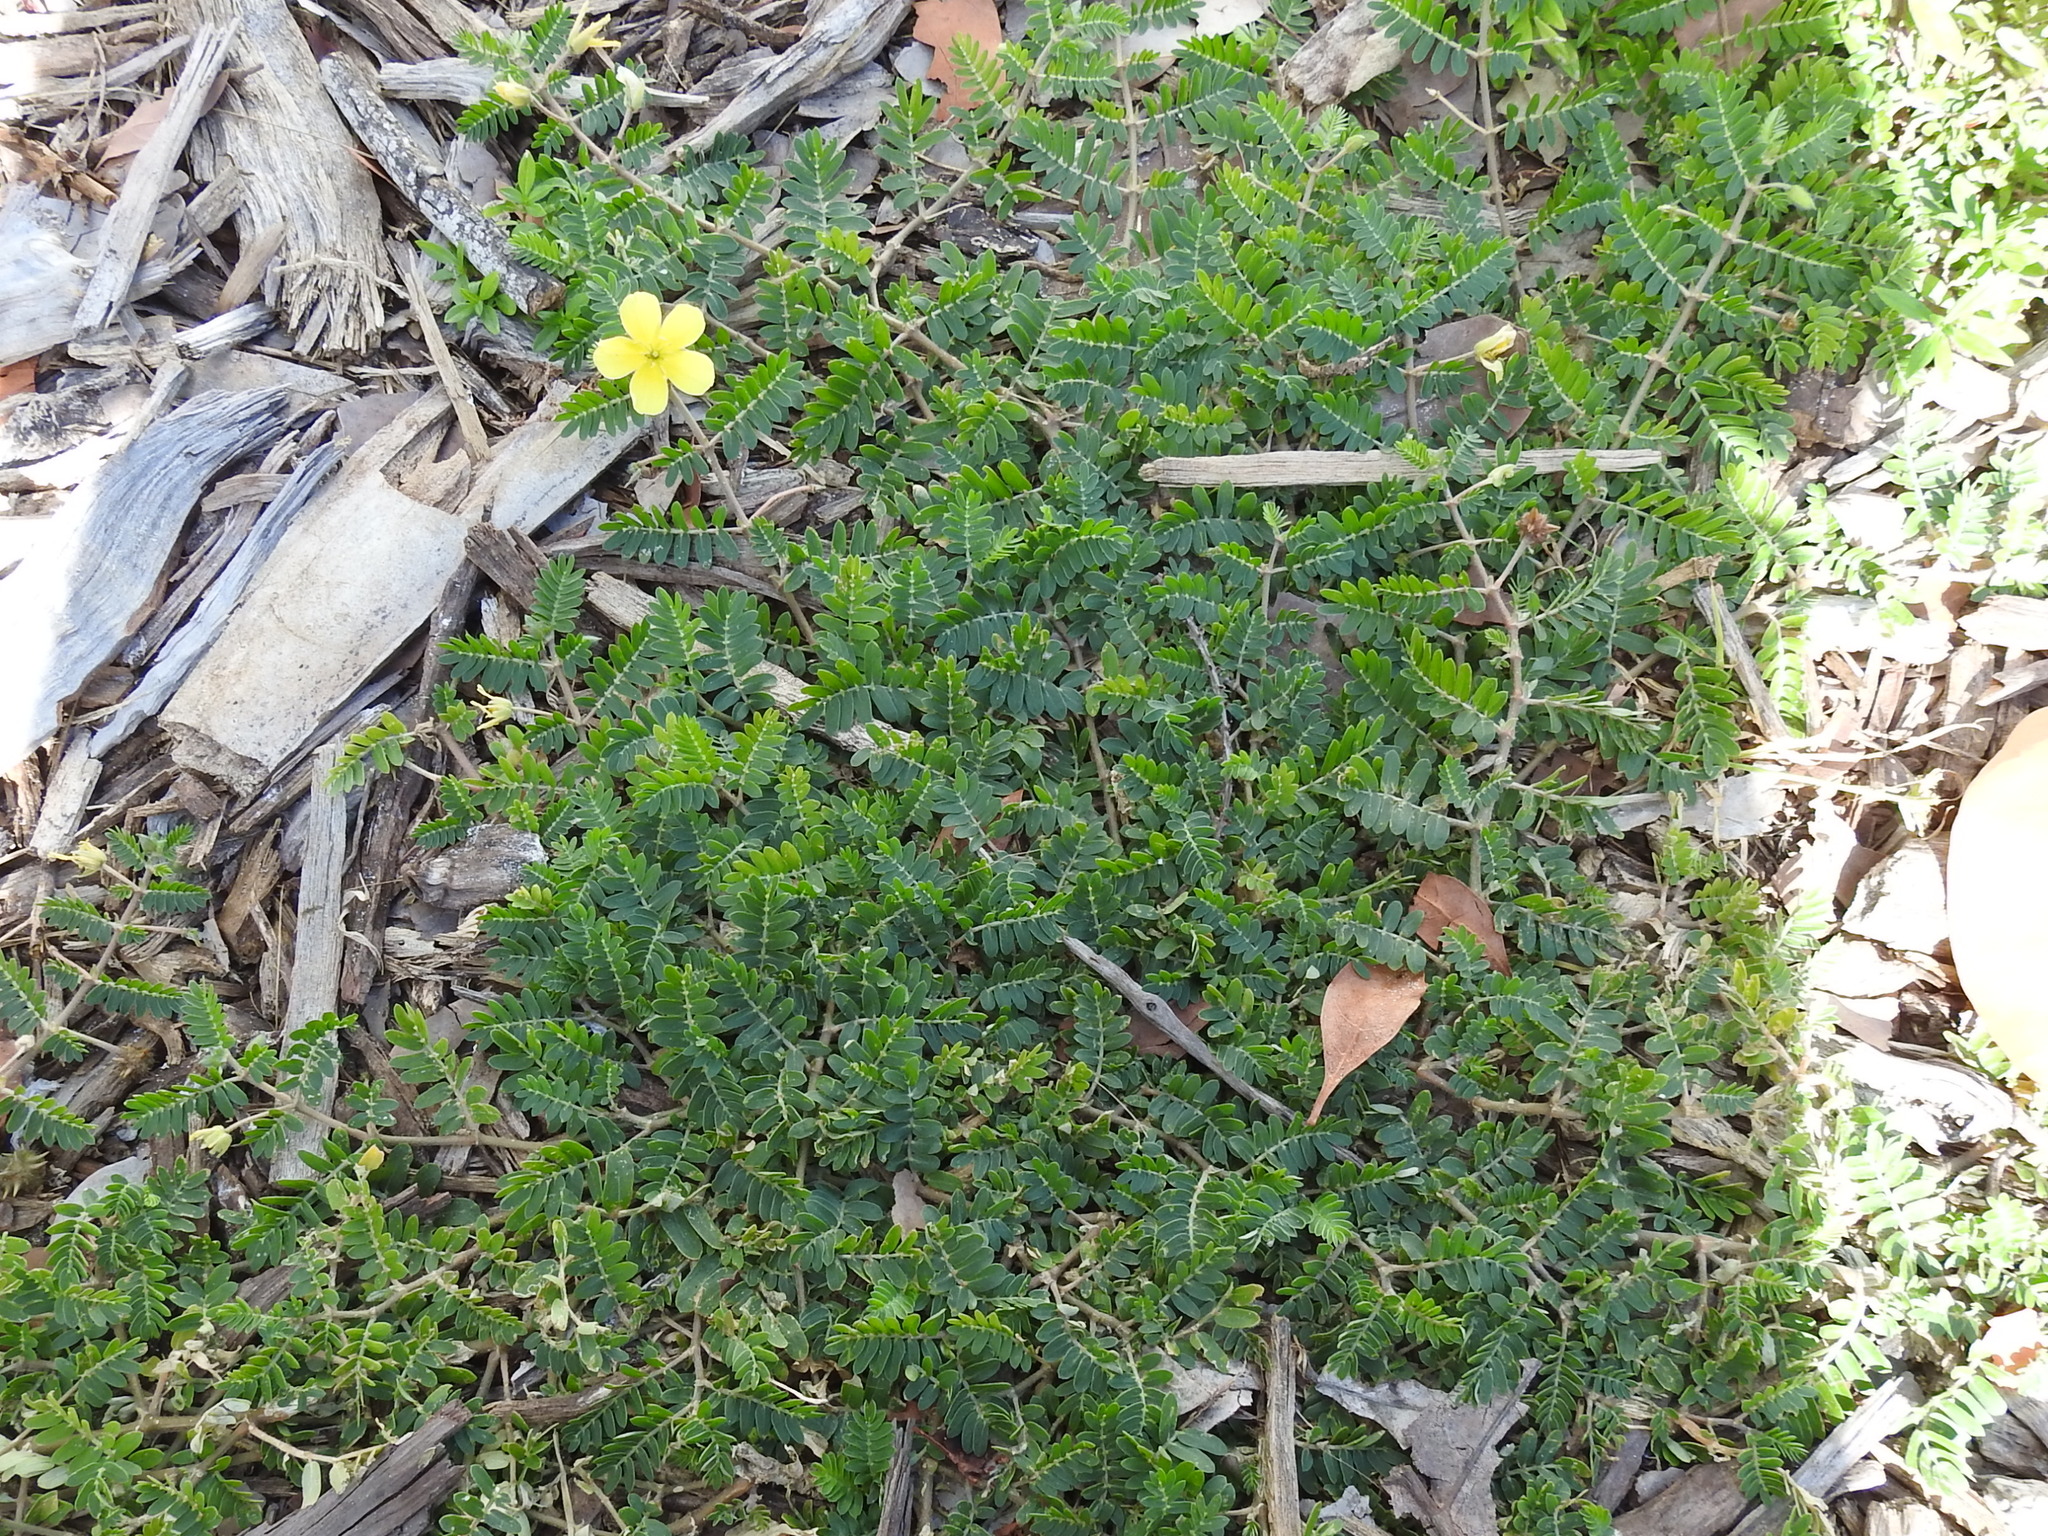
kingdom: Plantae
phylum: Tracheophyta
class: Magnoliopsida
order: Zygophyllales
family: Zygophyllaceae
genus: Tribulus
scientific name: Tribulus cistoides
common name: Jamaican feverplant
